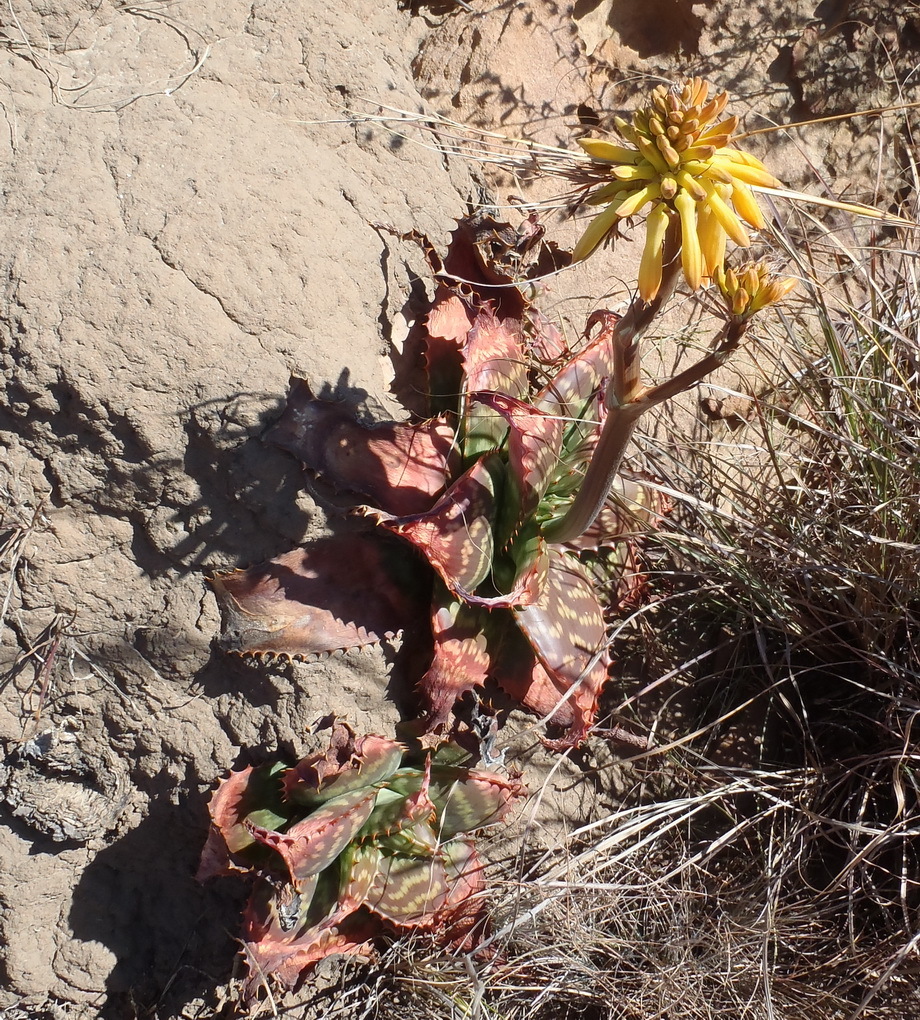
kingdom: Plantae
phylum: Tracheophyta
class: Liliopsida
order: Asparagales
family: Asphodelaceae
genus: Aloe
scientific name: Aloe maculata
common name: Broadleaf aloe
